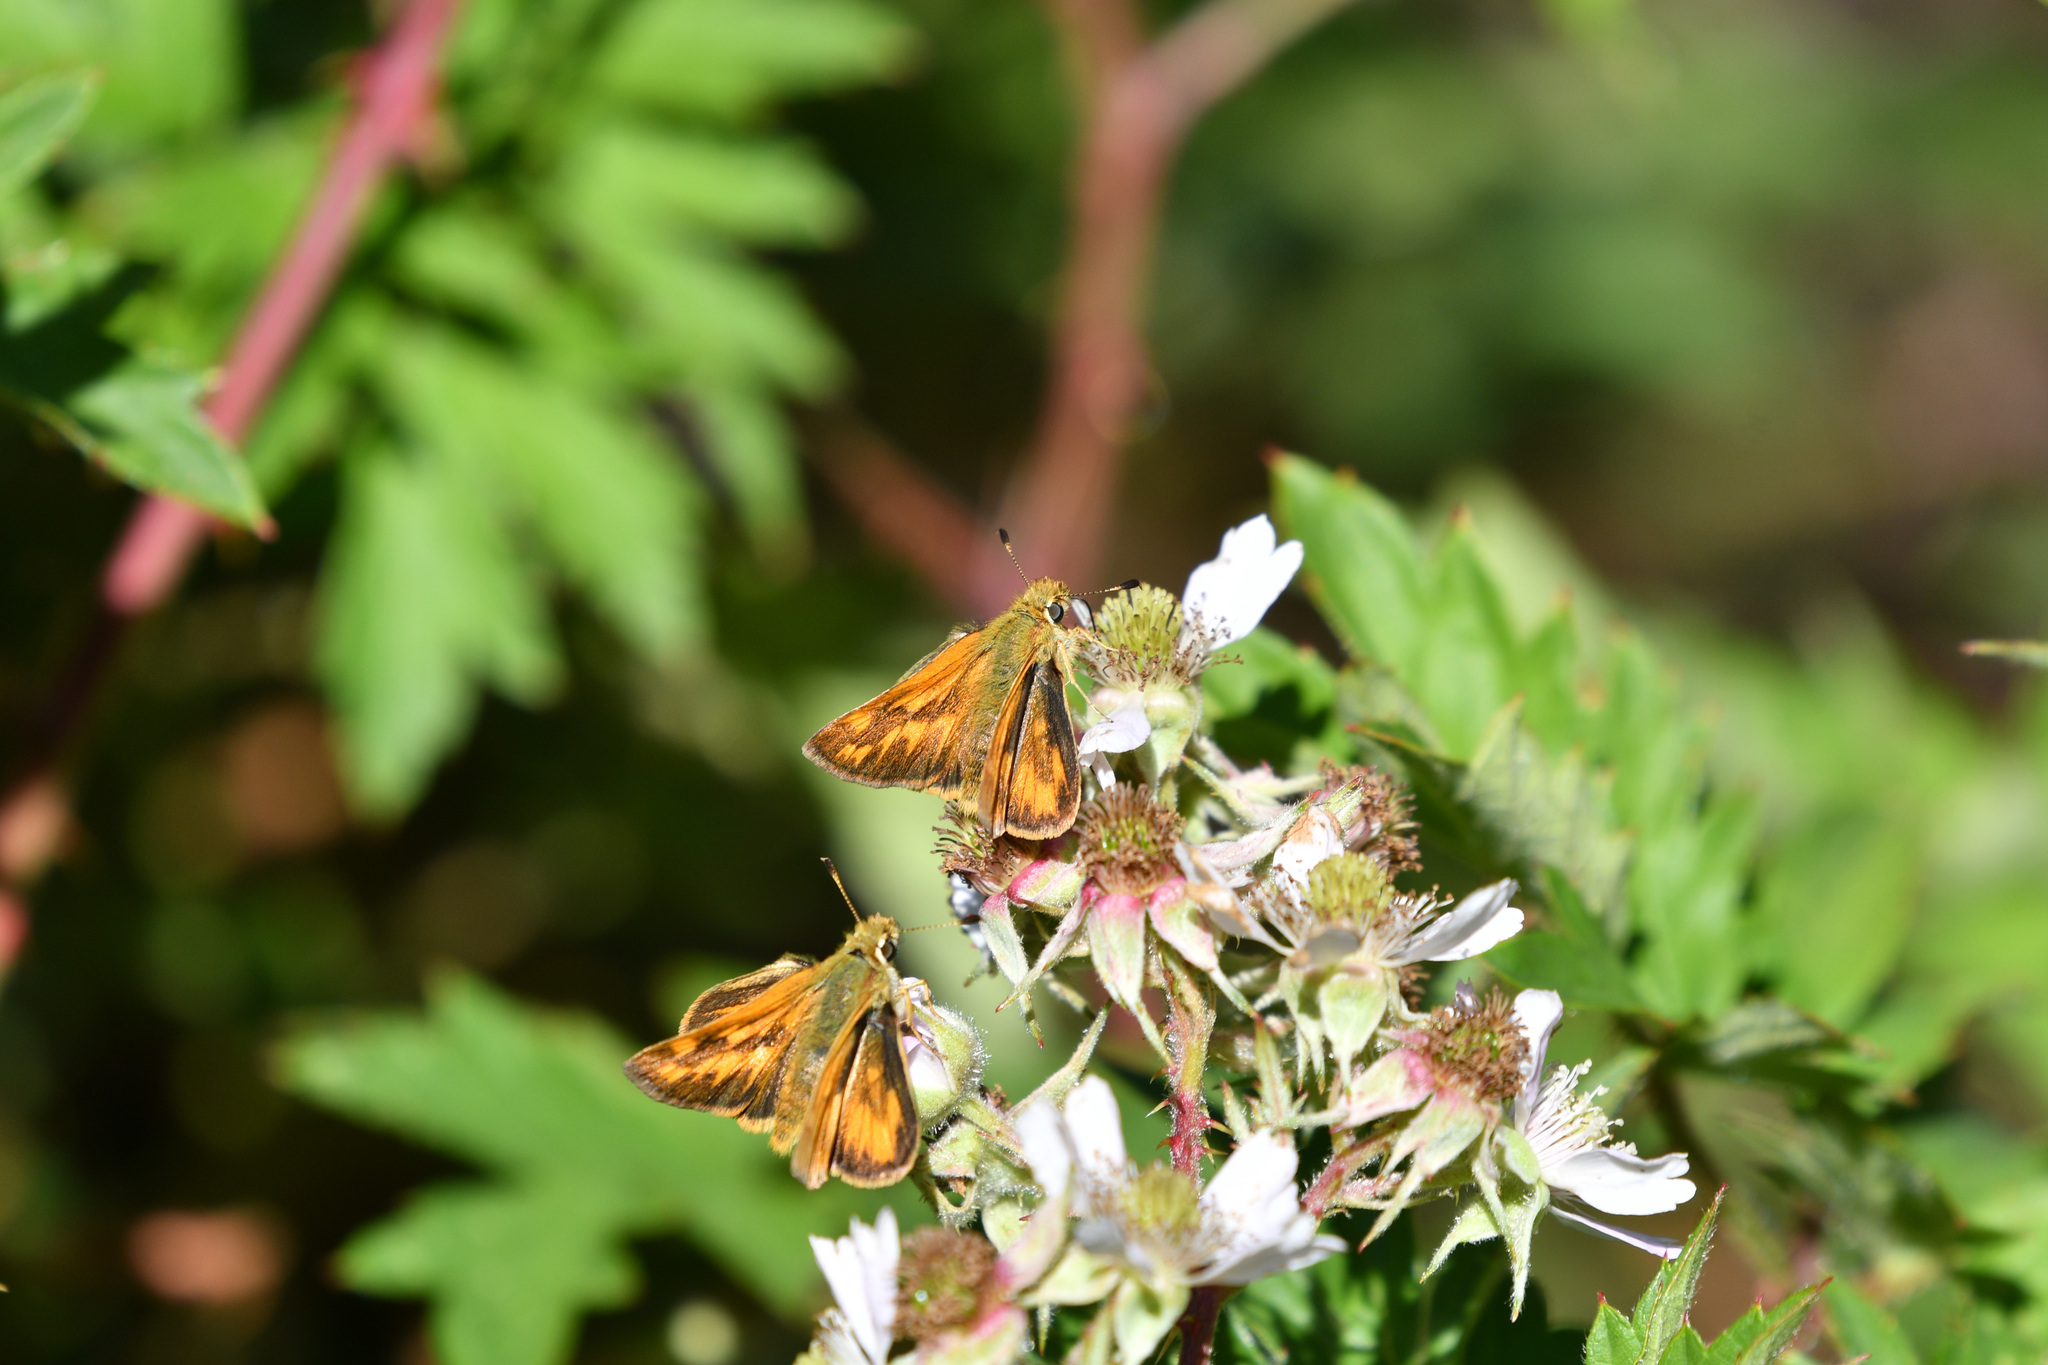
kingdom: Animalia
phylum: Arthropoda
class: Insecta
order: Lepidoptera
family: Hesperiidae
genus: Ochlodes
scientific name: Ochlodes sylvanoides
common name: Woodland skipper
